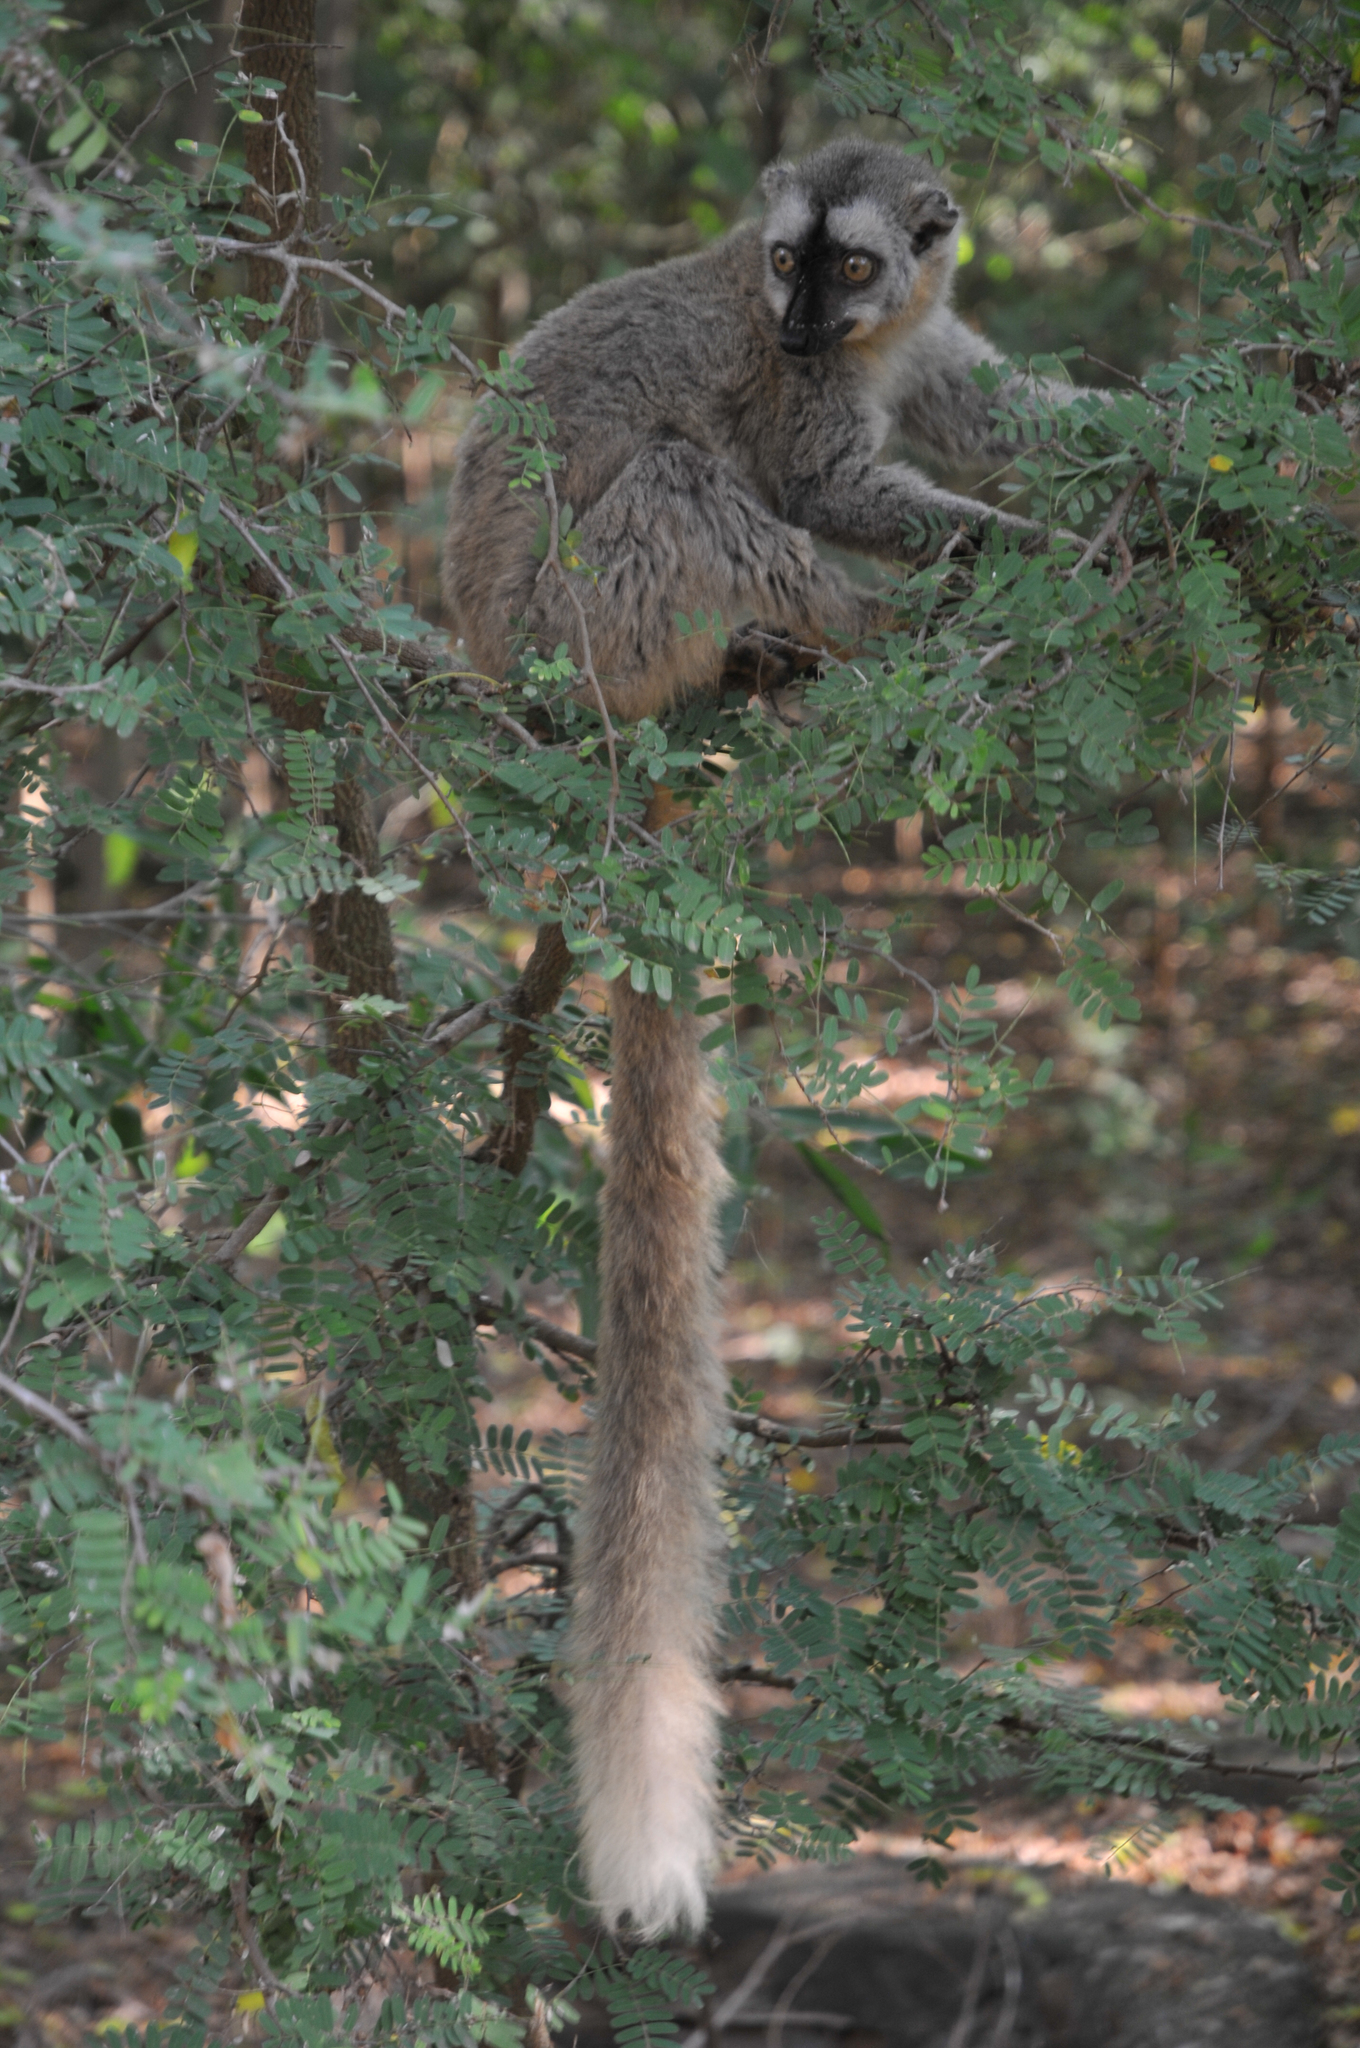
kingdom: Animalia
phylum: Chordata
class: Mammalia
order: Primates
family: Lemuridae
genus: Eulemur
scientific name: Eulemur
